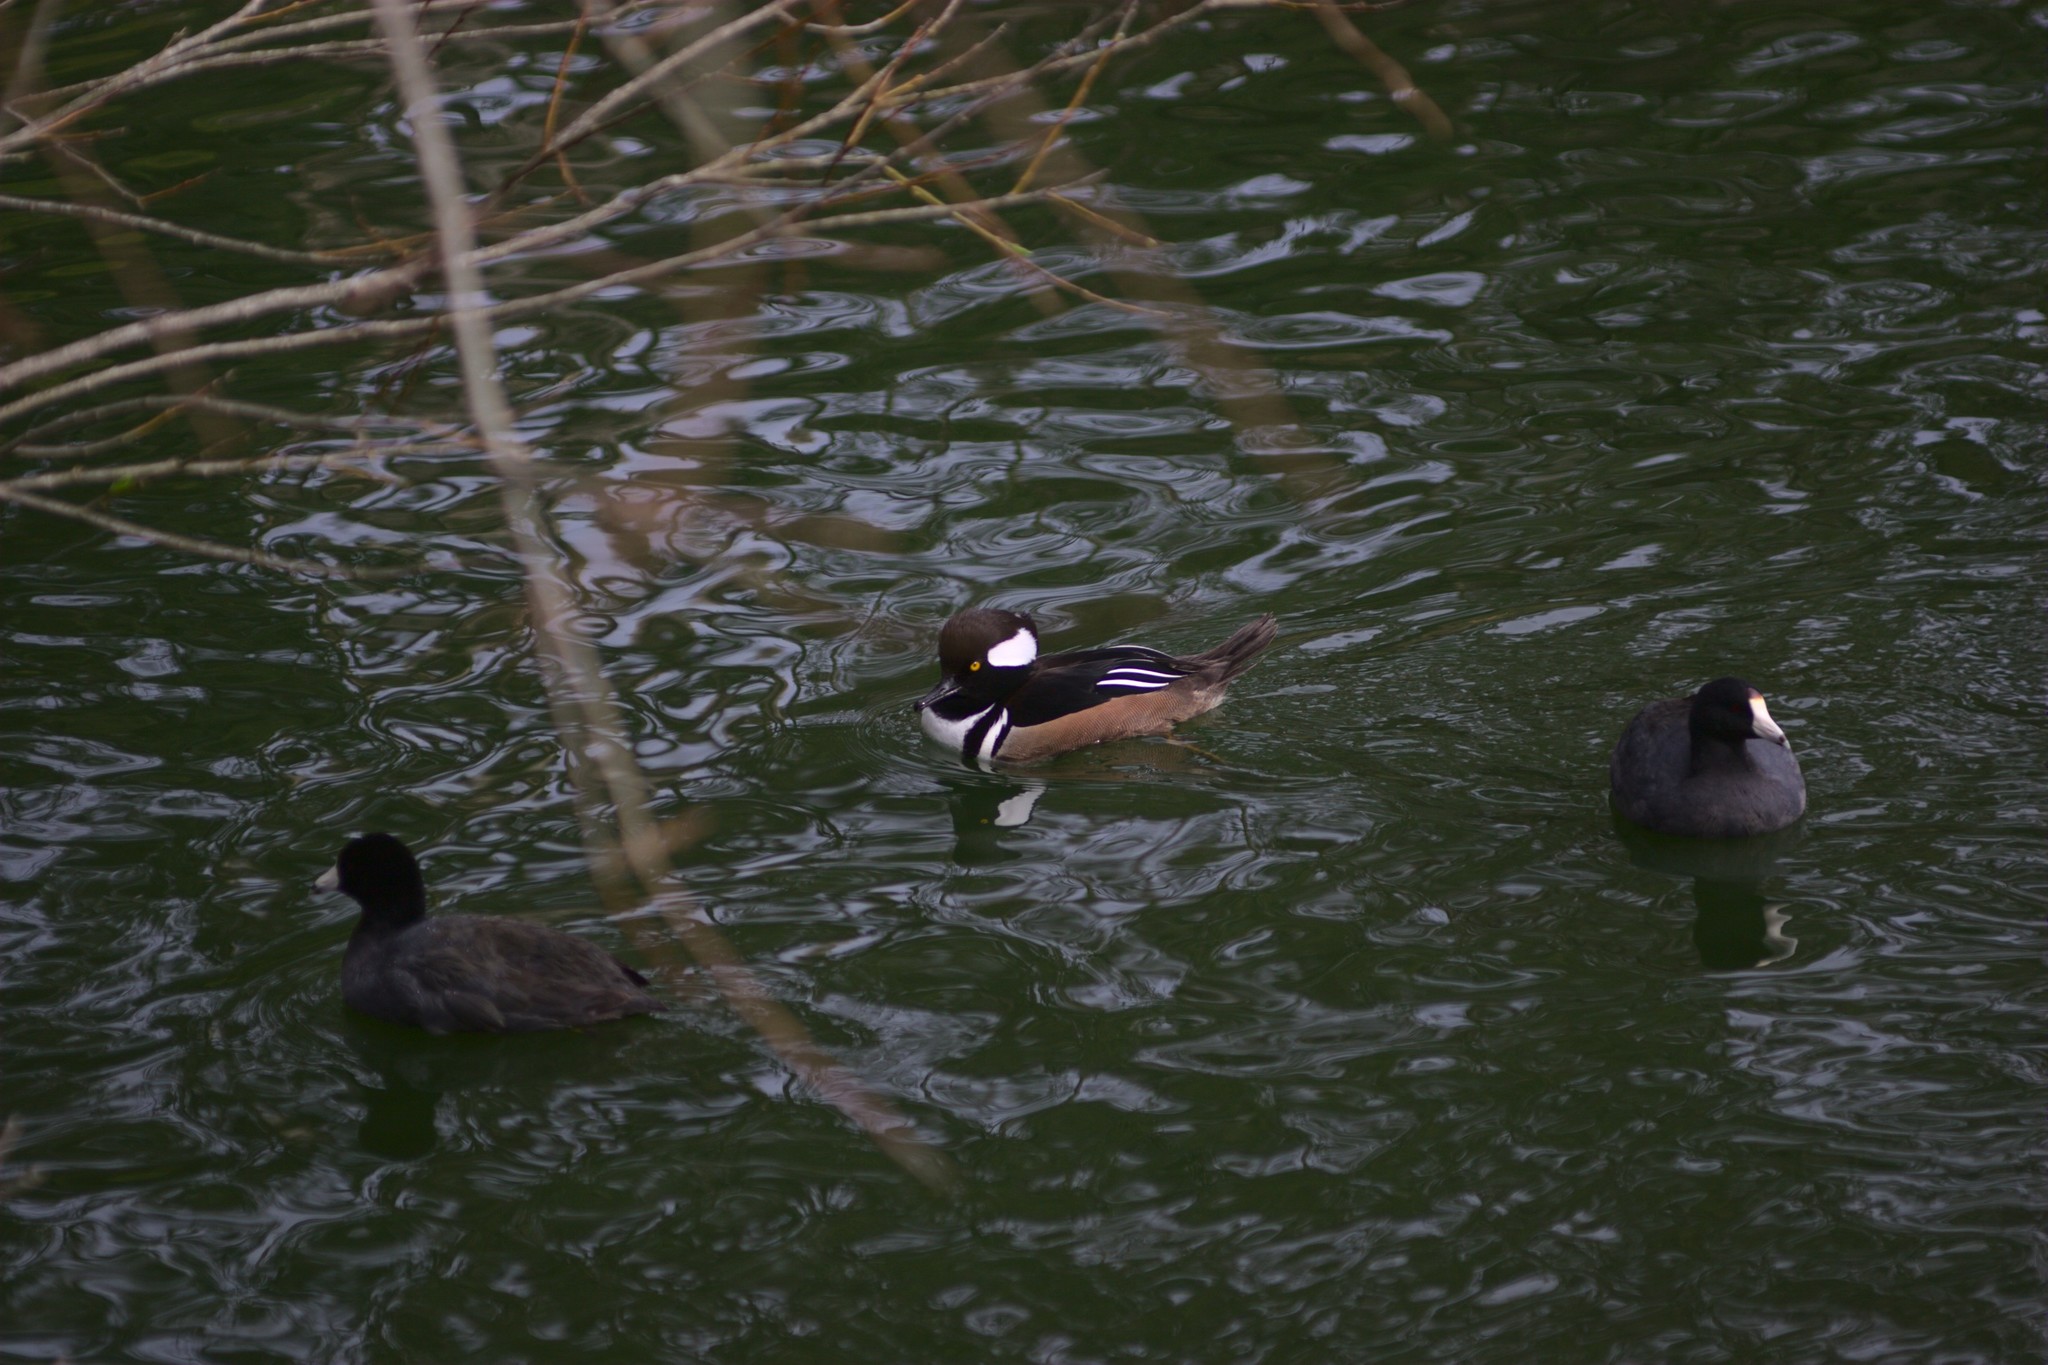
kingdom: Animalia
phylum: Chordata
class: Aves
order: Anseriformes
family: Anatidae
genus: Lophodytes
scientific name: Lophodytes cucullatus
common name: Hooded merganser
